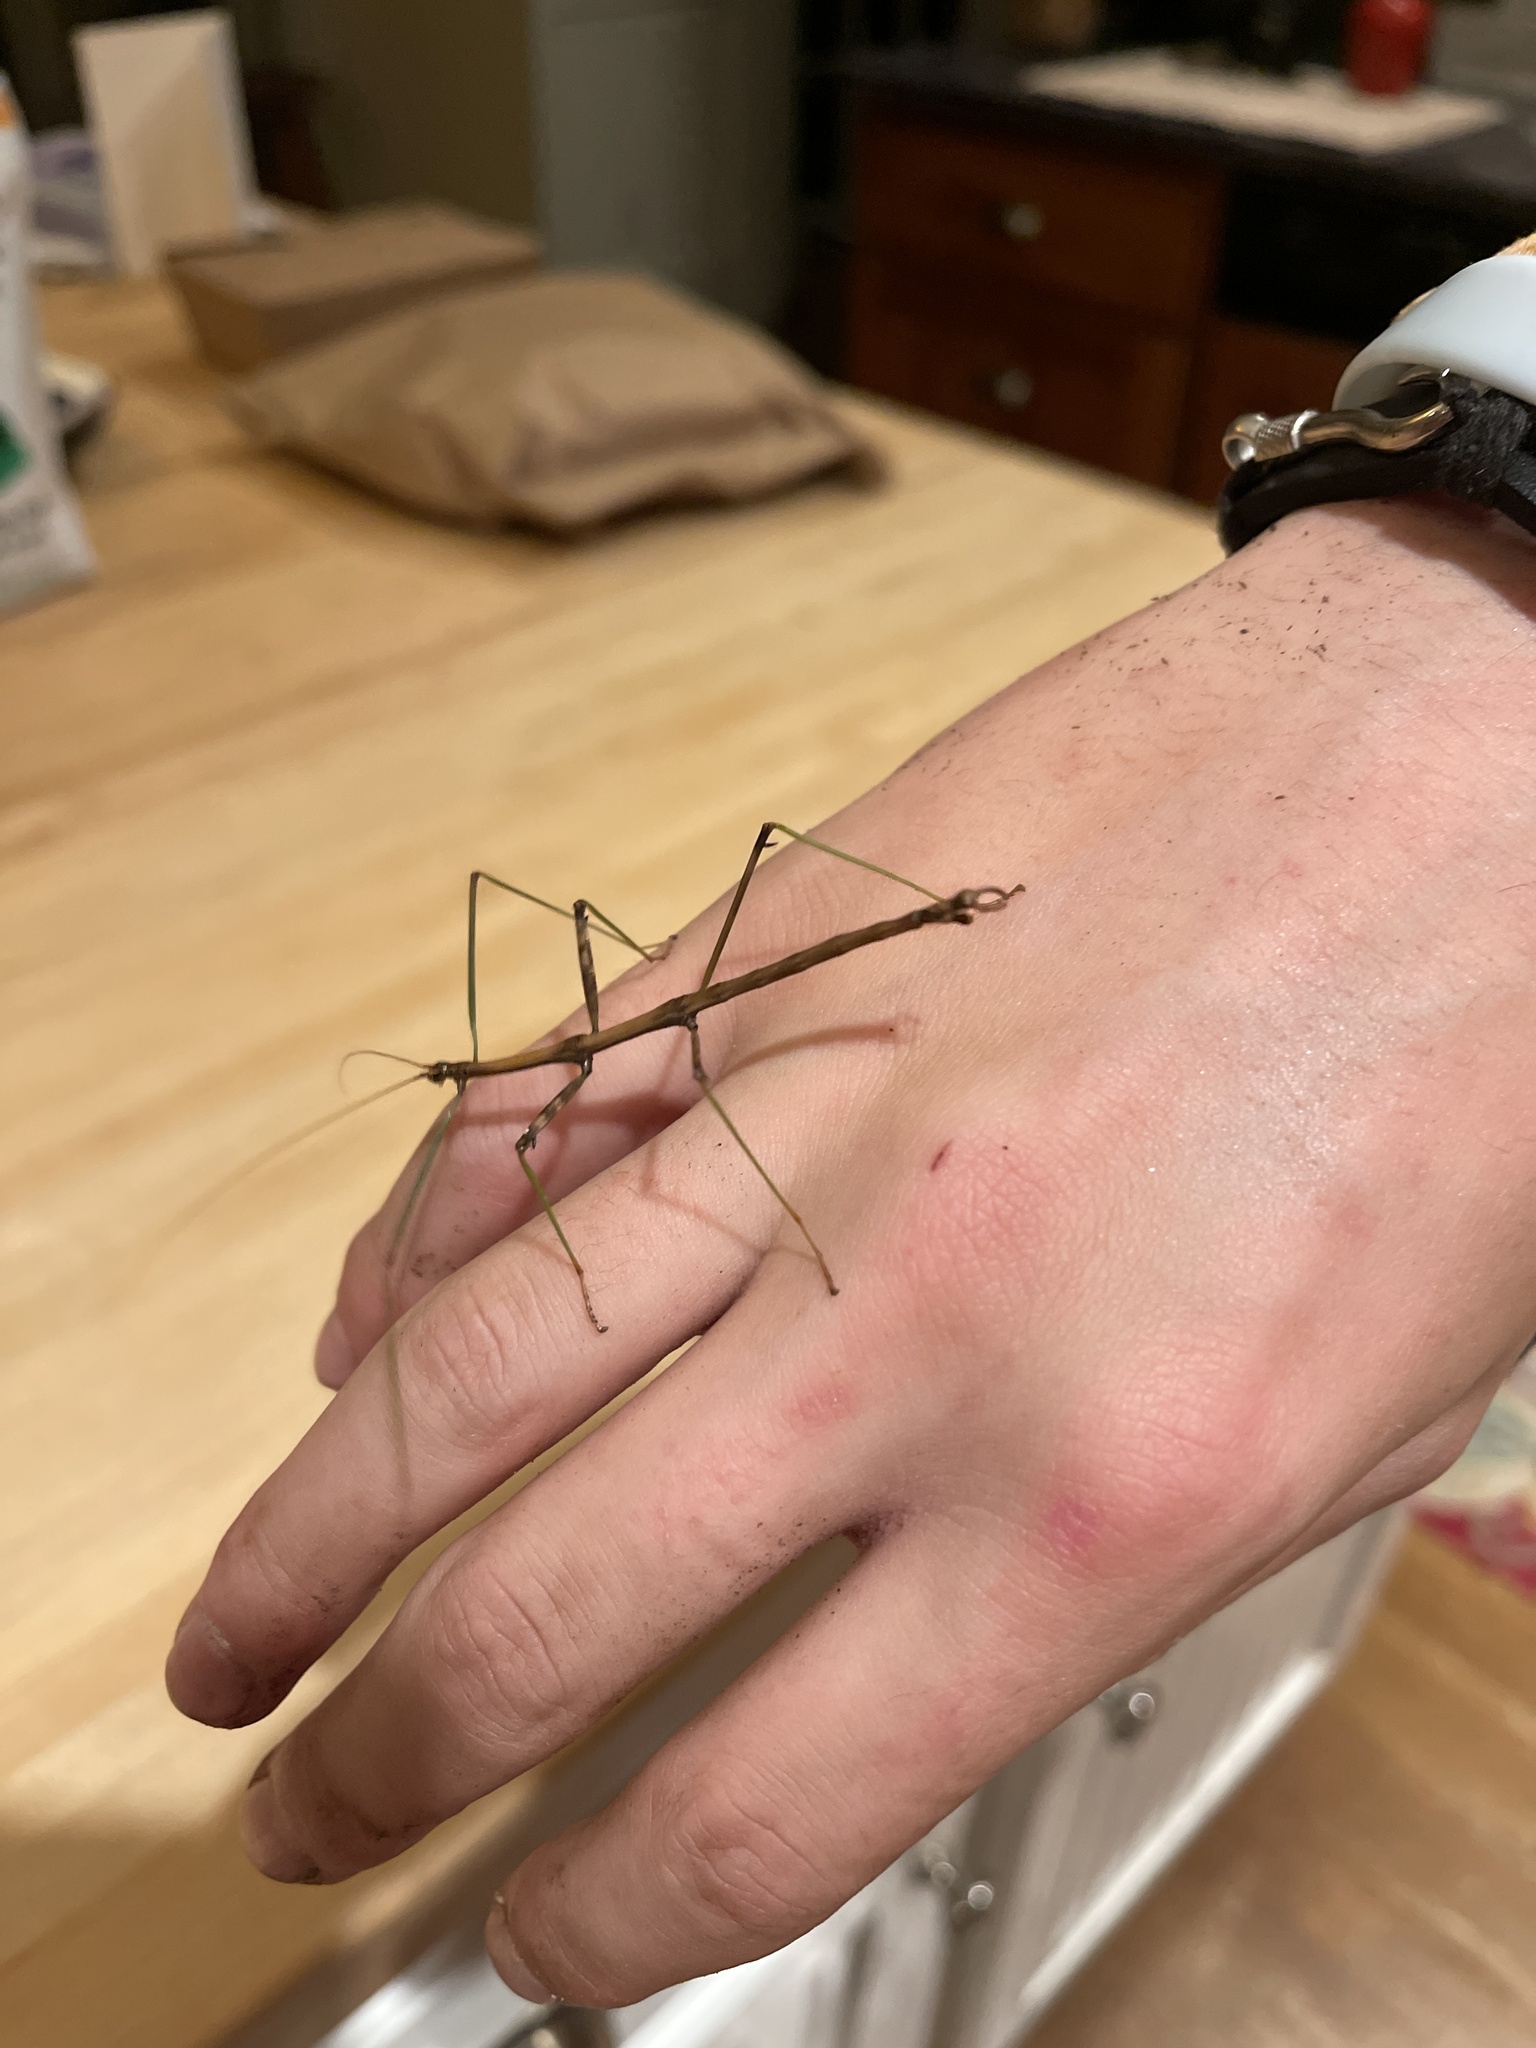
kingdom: Animalia
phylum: Arthropoda
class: Insecta
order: Phasmida
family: Diapheromeridae
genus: Diapheromera
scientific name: Diapheromera femorata
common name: Common american walkingstick
